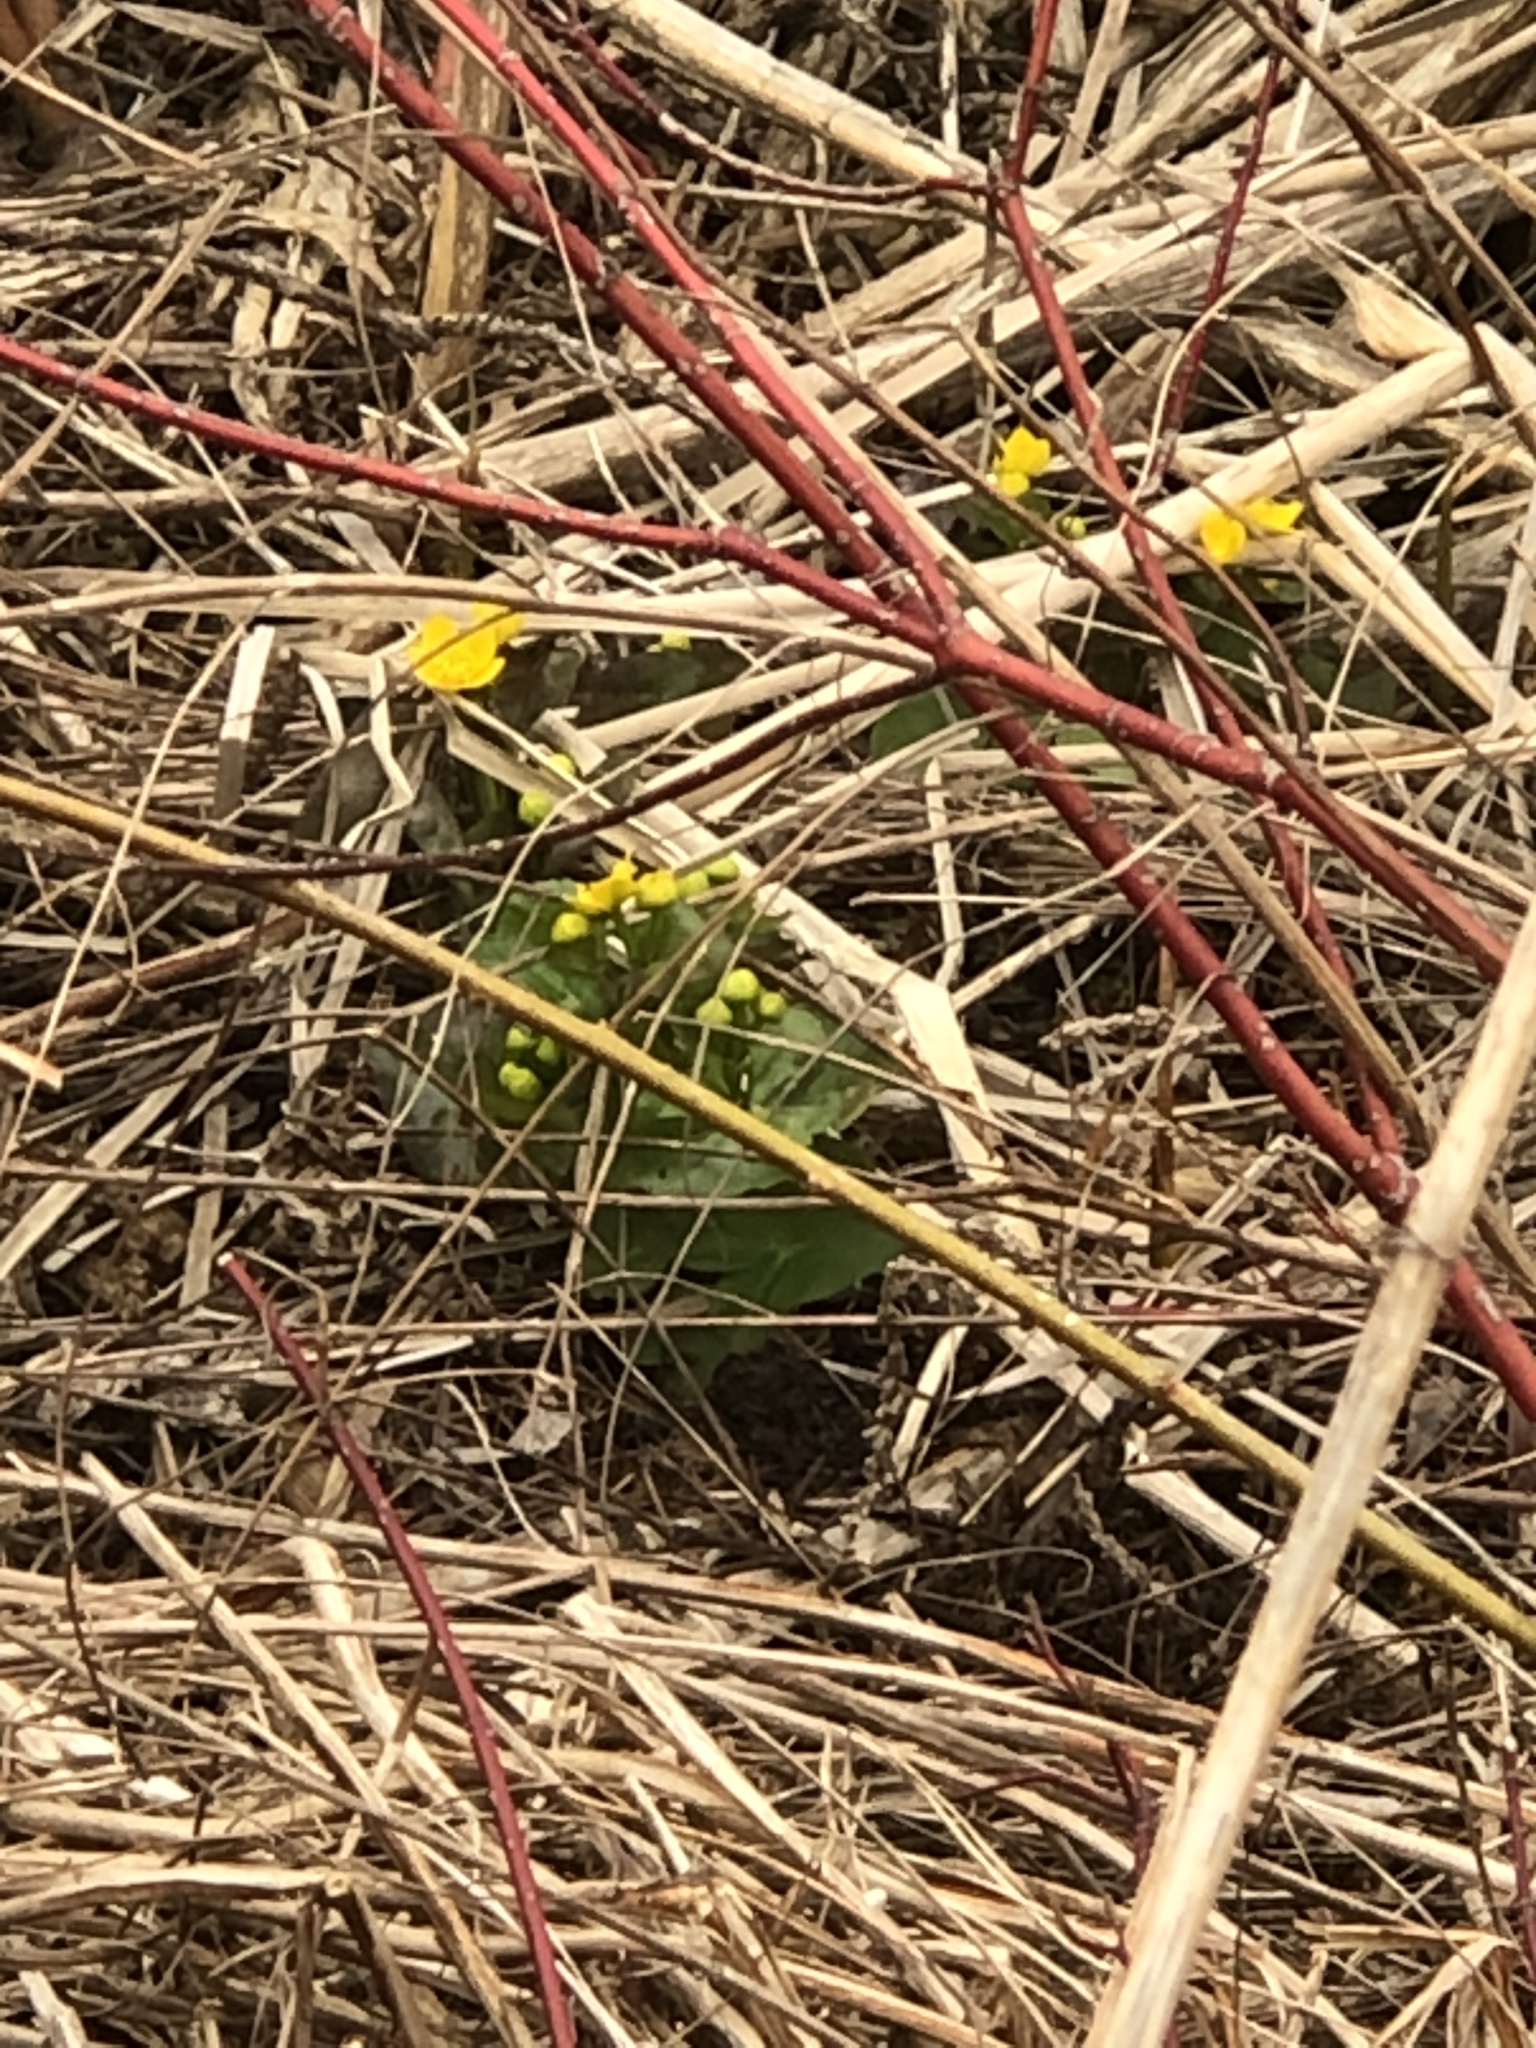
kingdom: Plantae
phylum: Tracheophyta
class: Magnoliopsida
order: Ranunculales
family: Ranunculaceae
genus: Caltha
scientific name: Caltha palustris
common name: Marsh marigold
